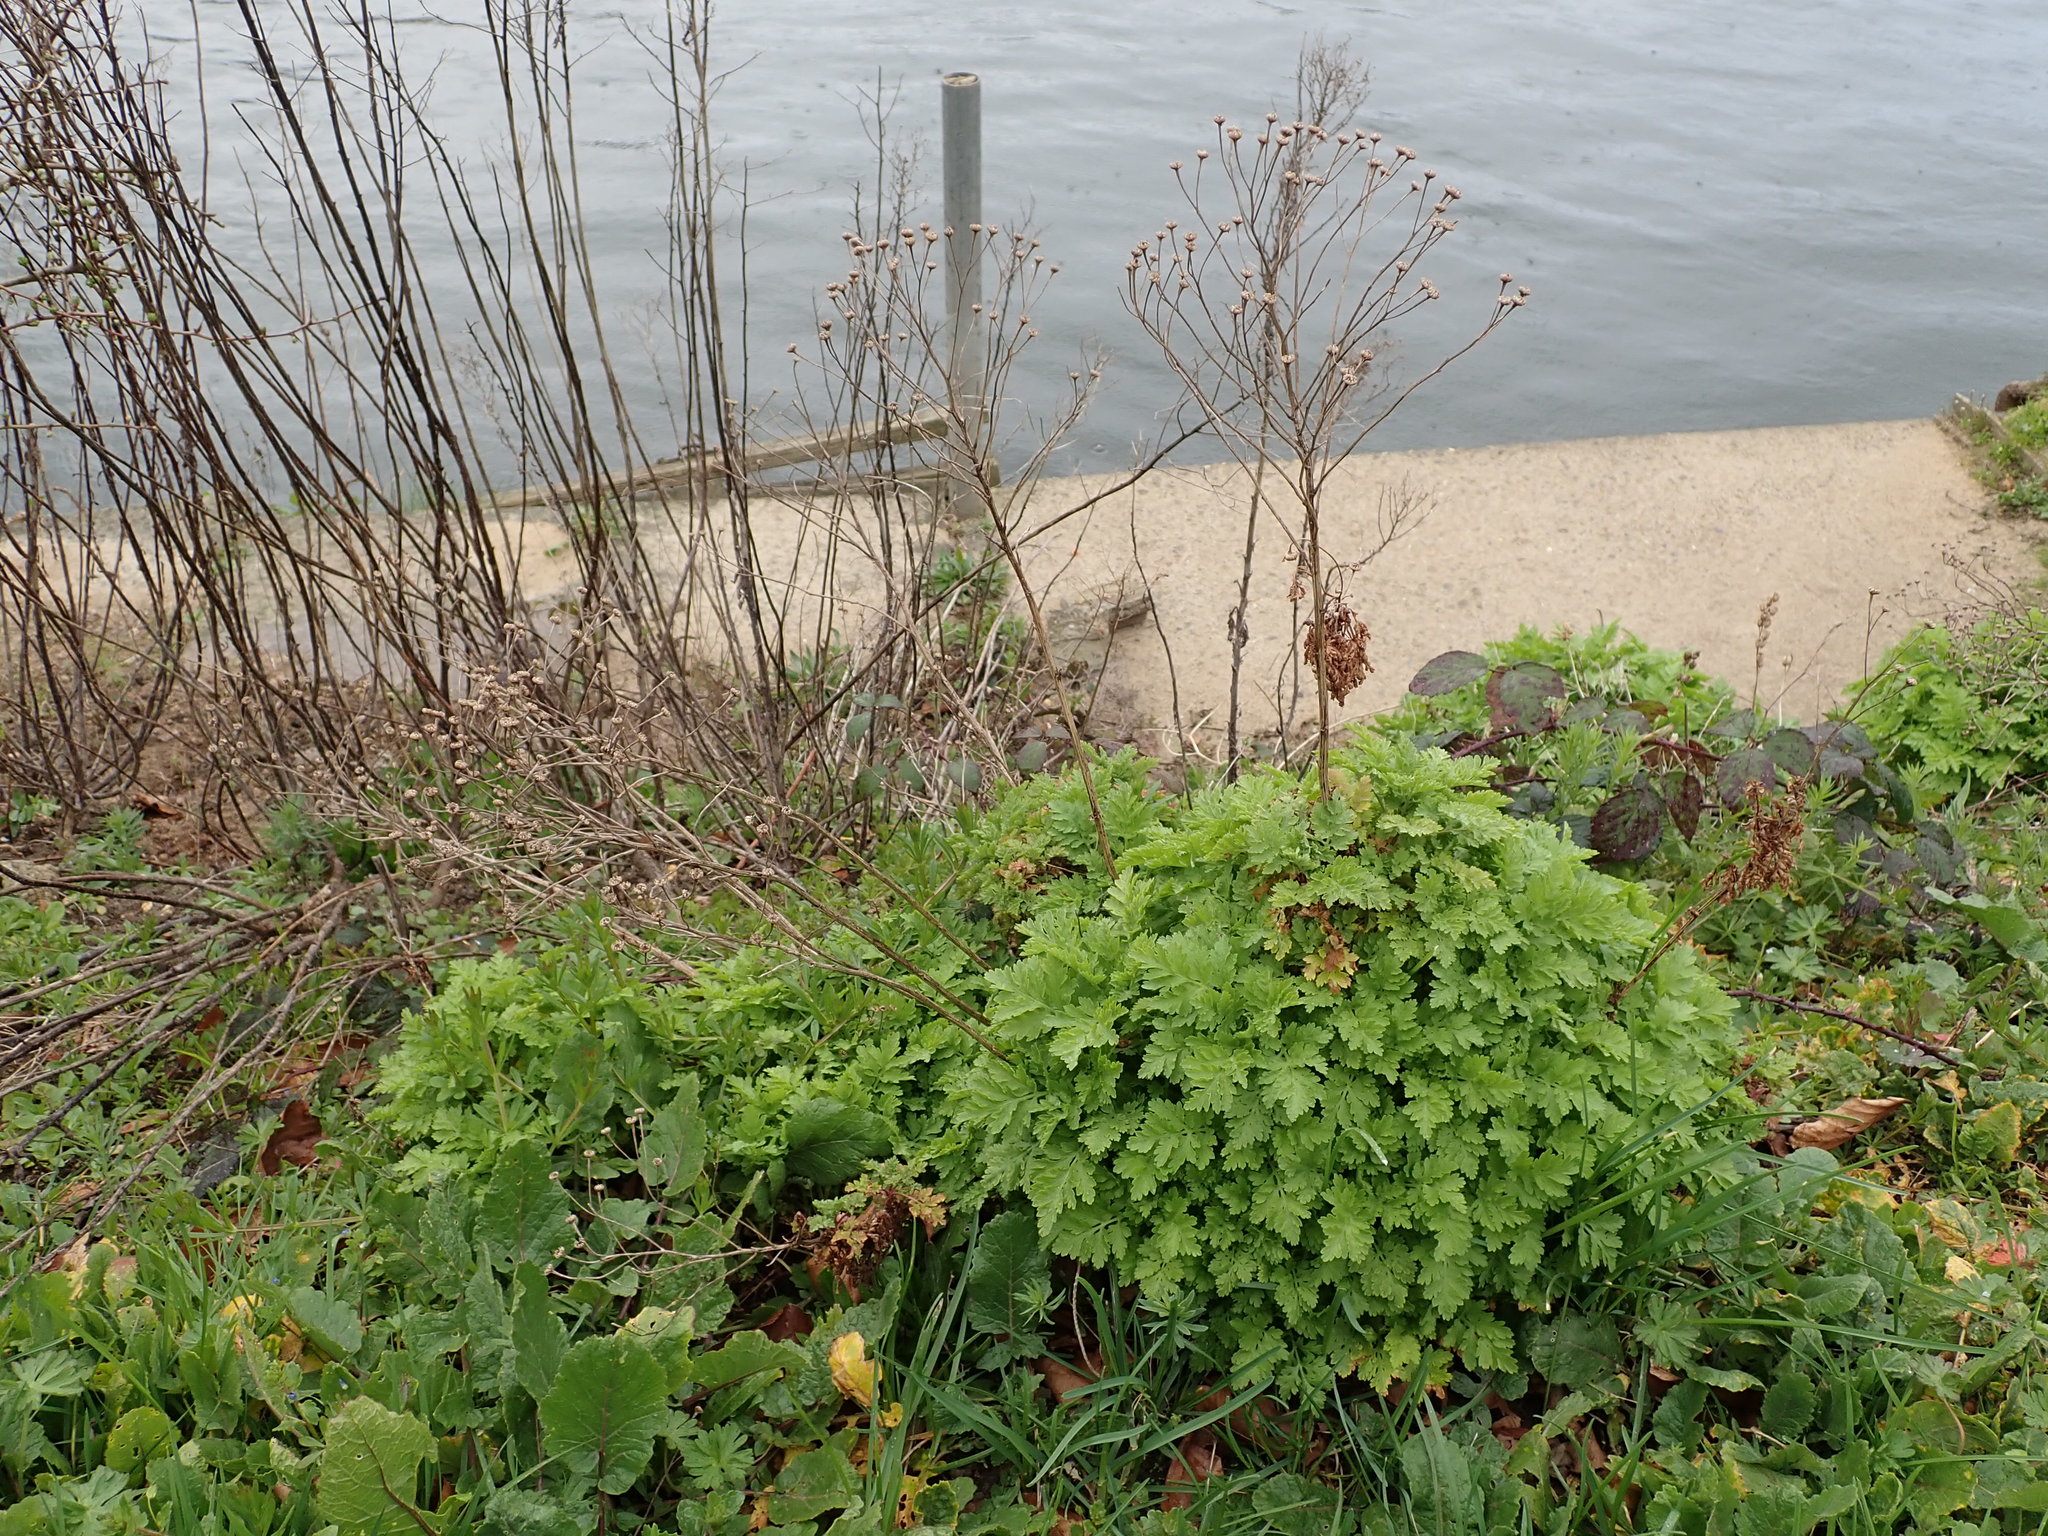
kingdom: Plantae
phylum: Tracheophyta
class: Magnoliopsida
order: Asterales
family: Asteraceae
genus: Tanacetum
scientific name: Tanacetum parthenium
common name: Feverfew
